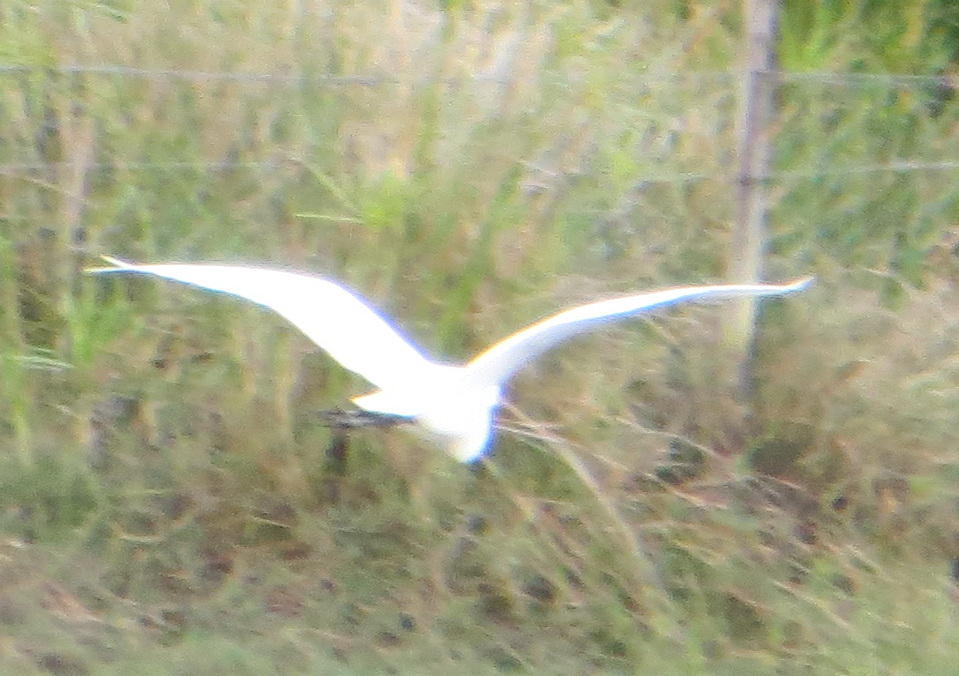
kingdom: Animalia
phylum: Chordata
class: Aves
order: Pelecaniformes
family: Ardeidae
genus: Egretta
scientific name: Egretta intermedia
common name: Intermediate egret
